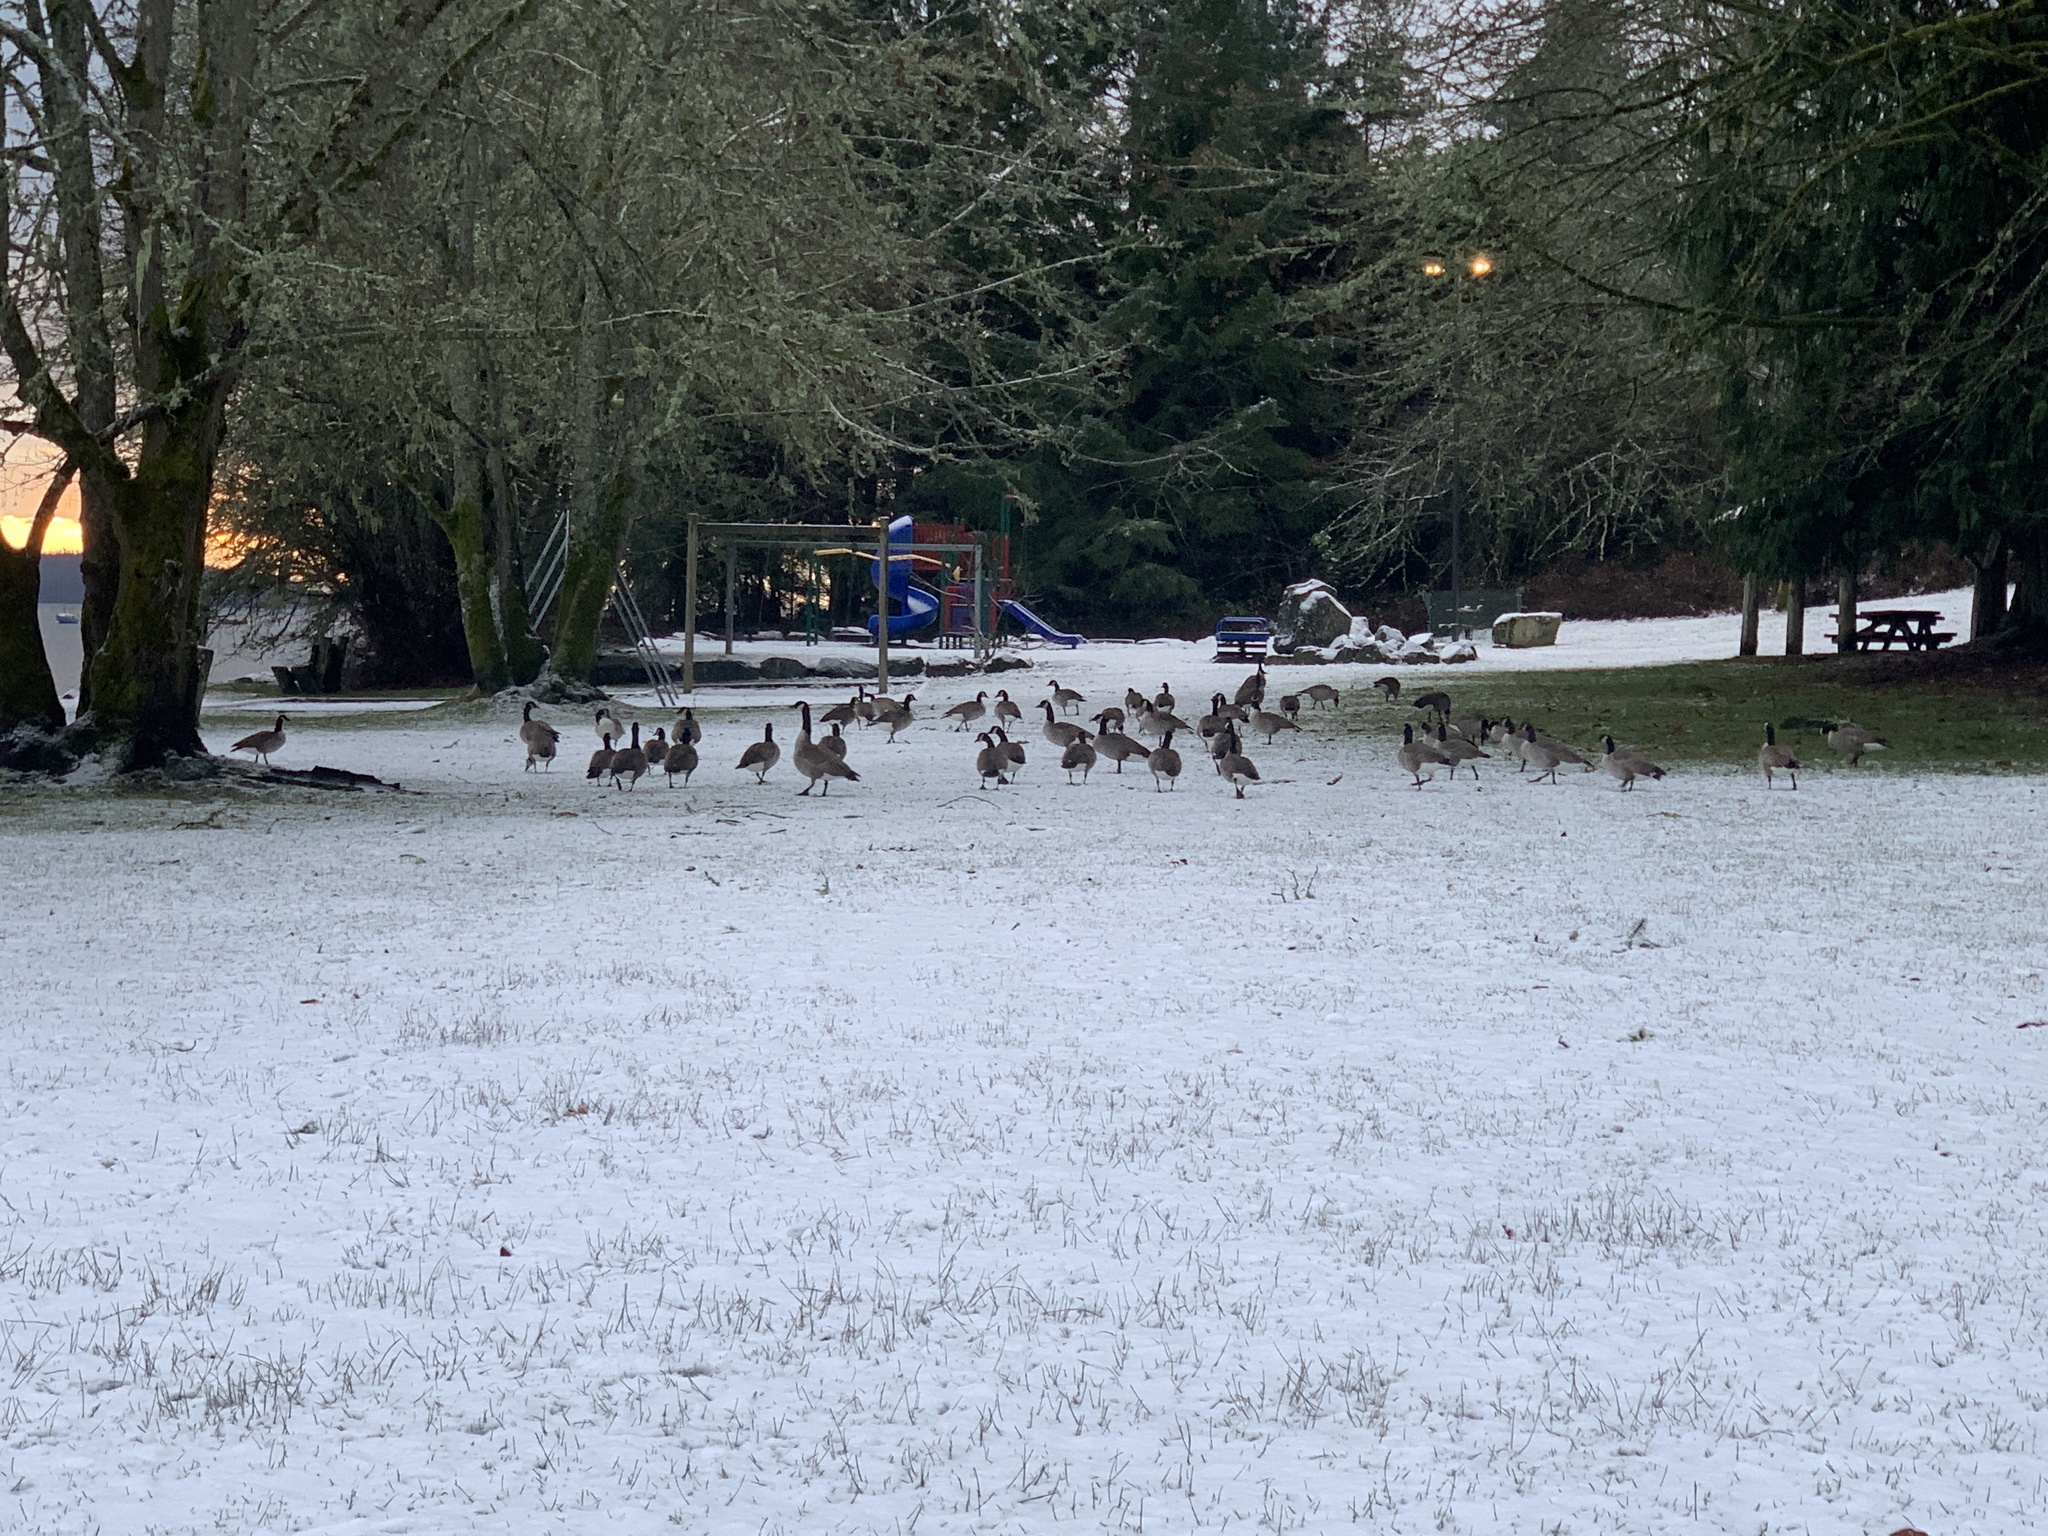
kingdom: Animalia
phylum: Chordata
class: Aves
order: Anseriformes
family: Anatidae
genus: Branta
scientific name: Branta canadensis
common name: Canada goose
